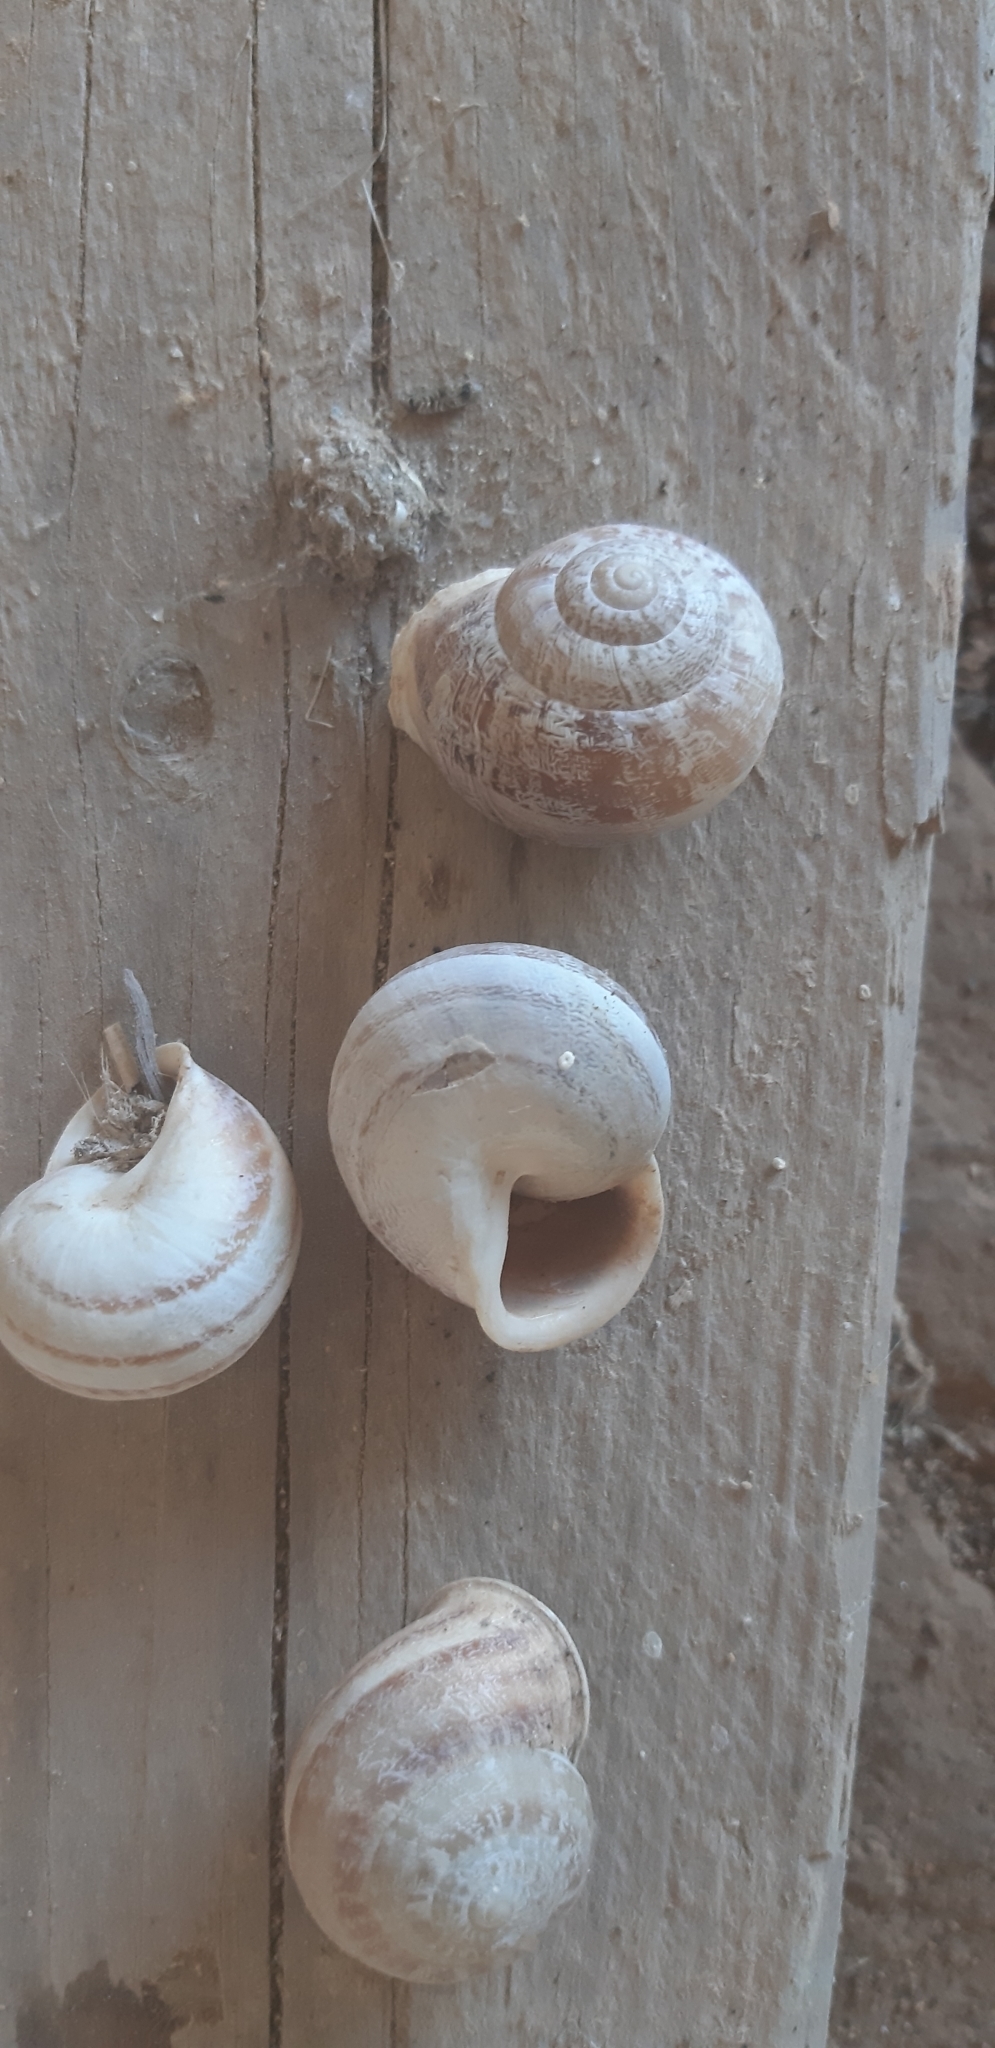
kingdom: Animalia
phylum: Mollusca
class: Gastropoda
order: Stylommatophora
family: Helicidae
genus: Eobania
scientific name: Eobania vermiculata
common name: Chocolateband snail
